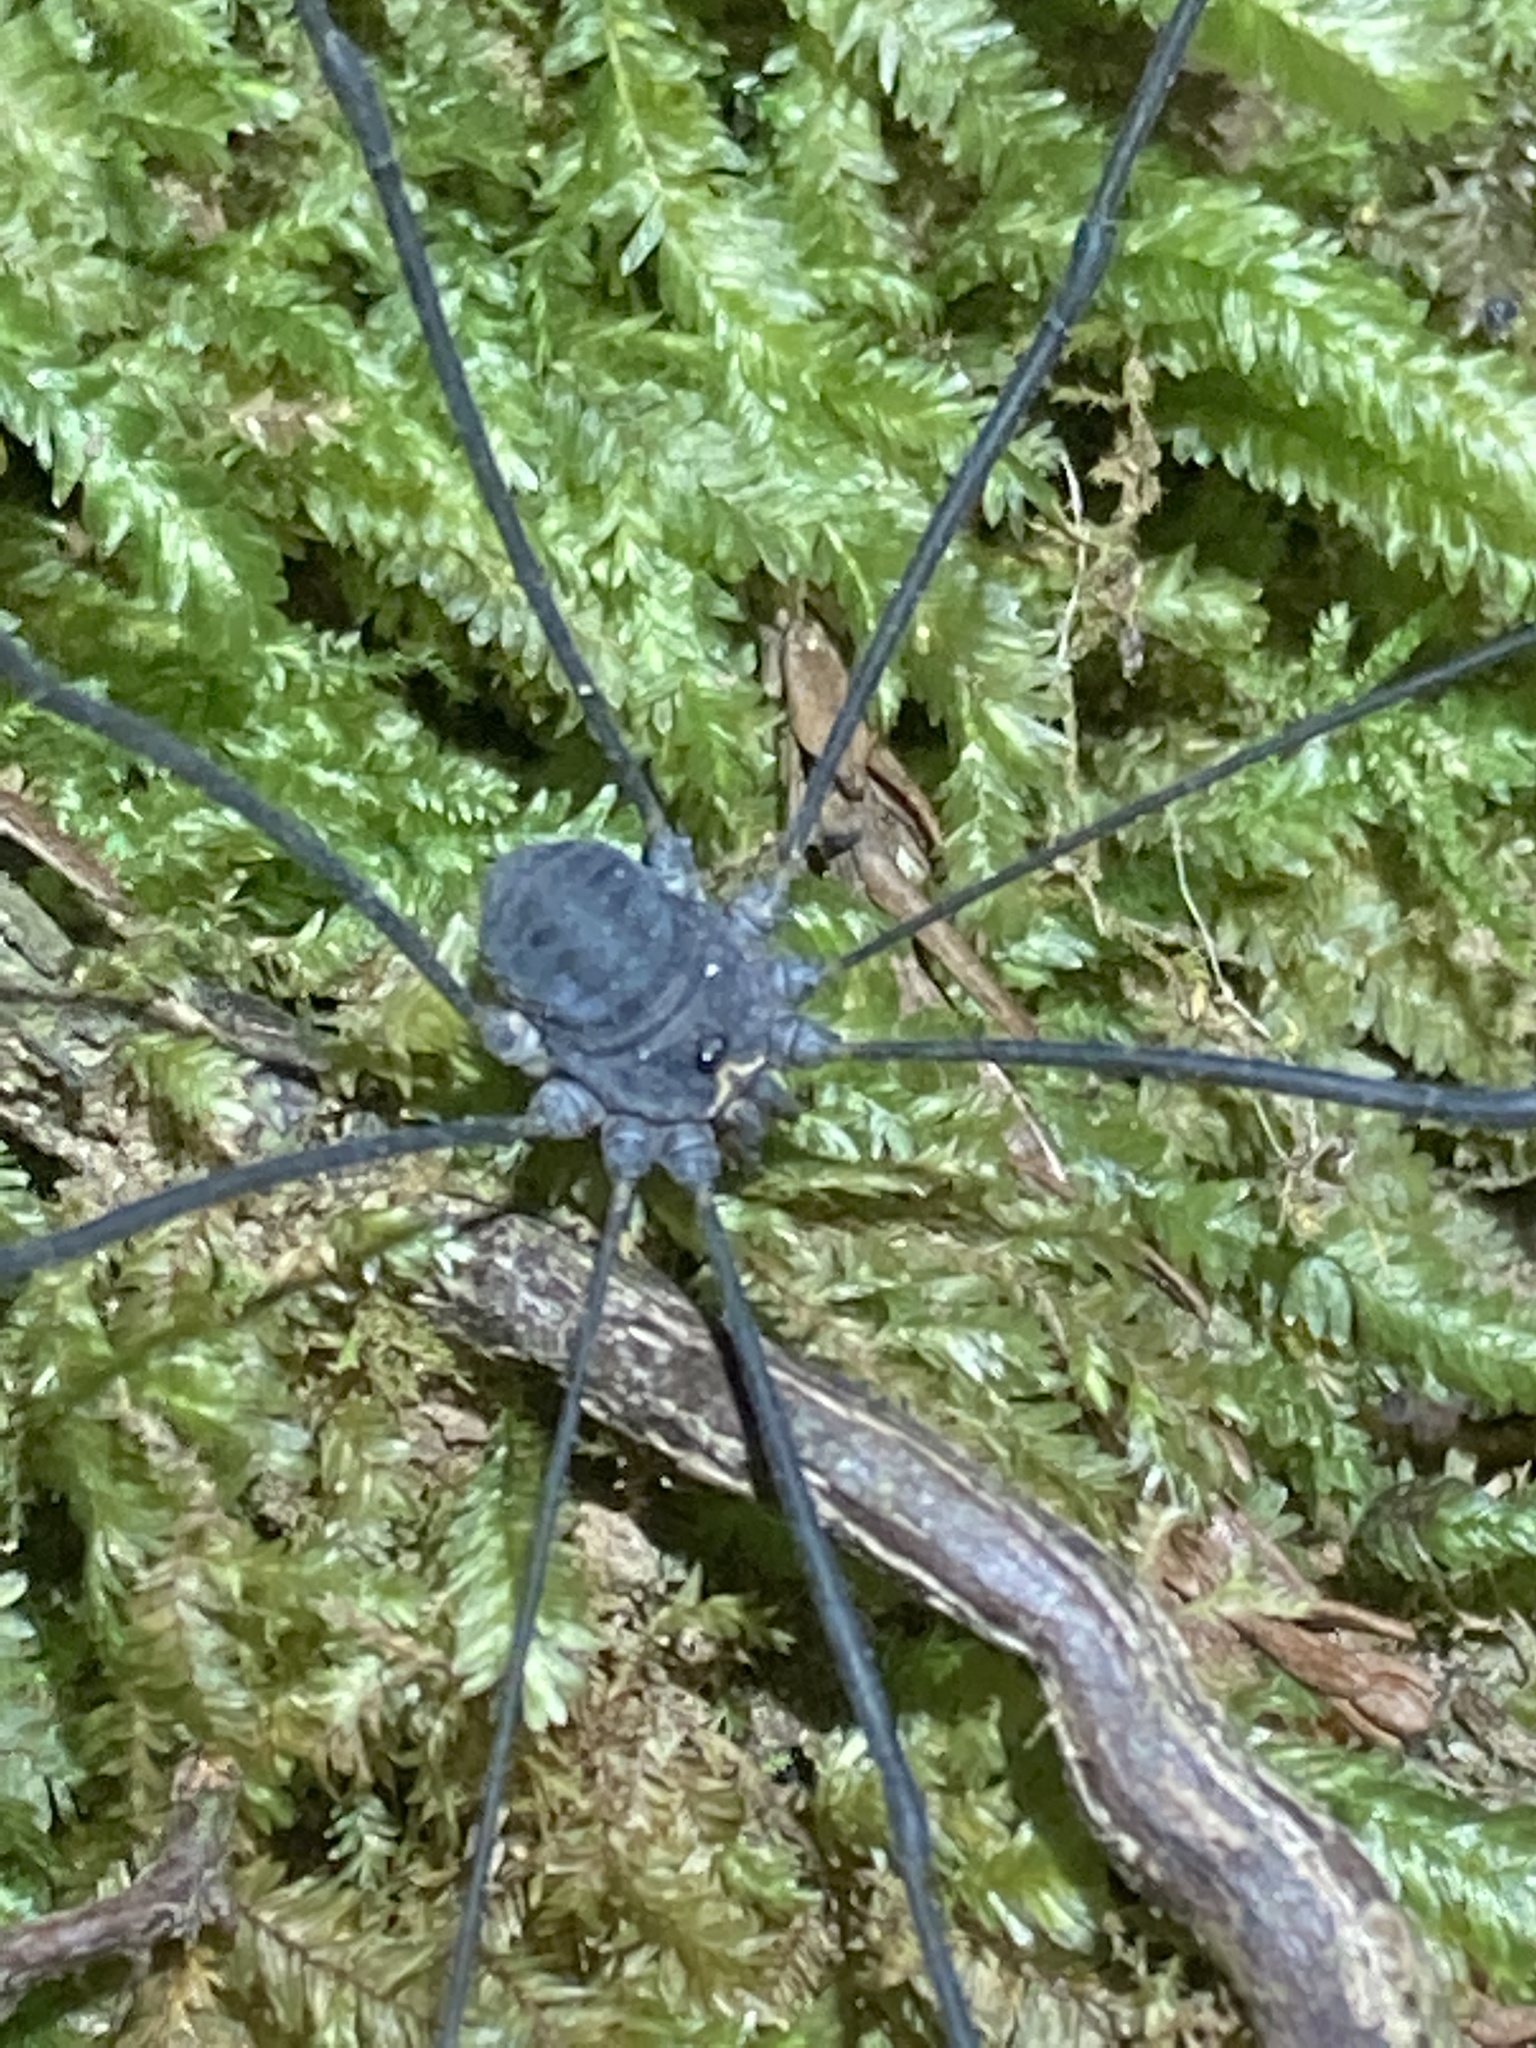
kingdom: Animalia
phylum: Arthropoda
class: Arachnida
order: Opiliones
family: Sclerosomatidae
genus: Leiobunum
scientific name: Leiobunum exilipes
